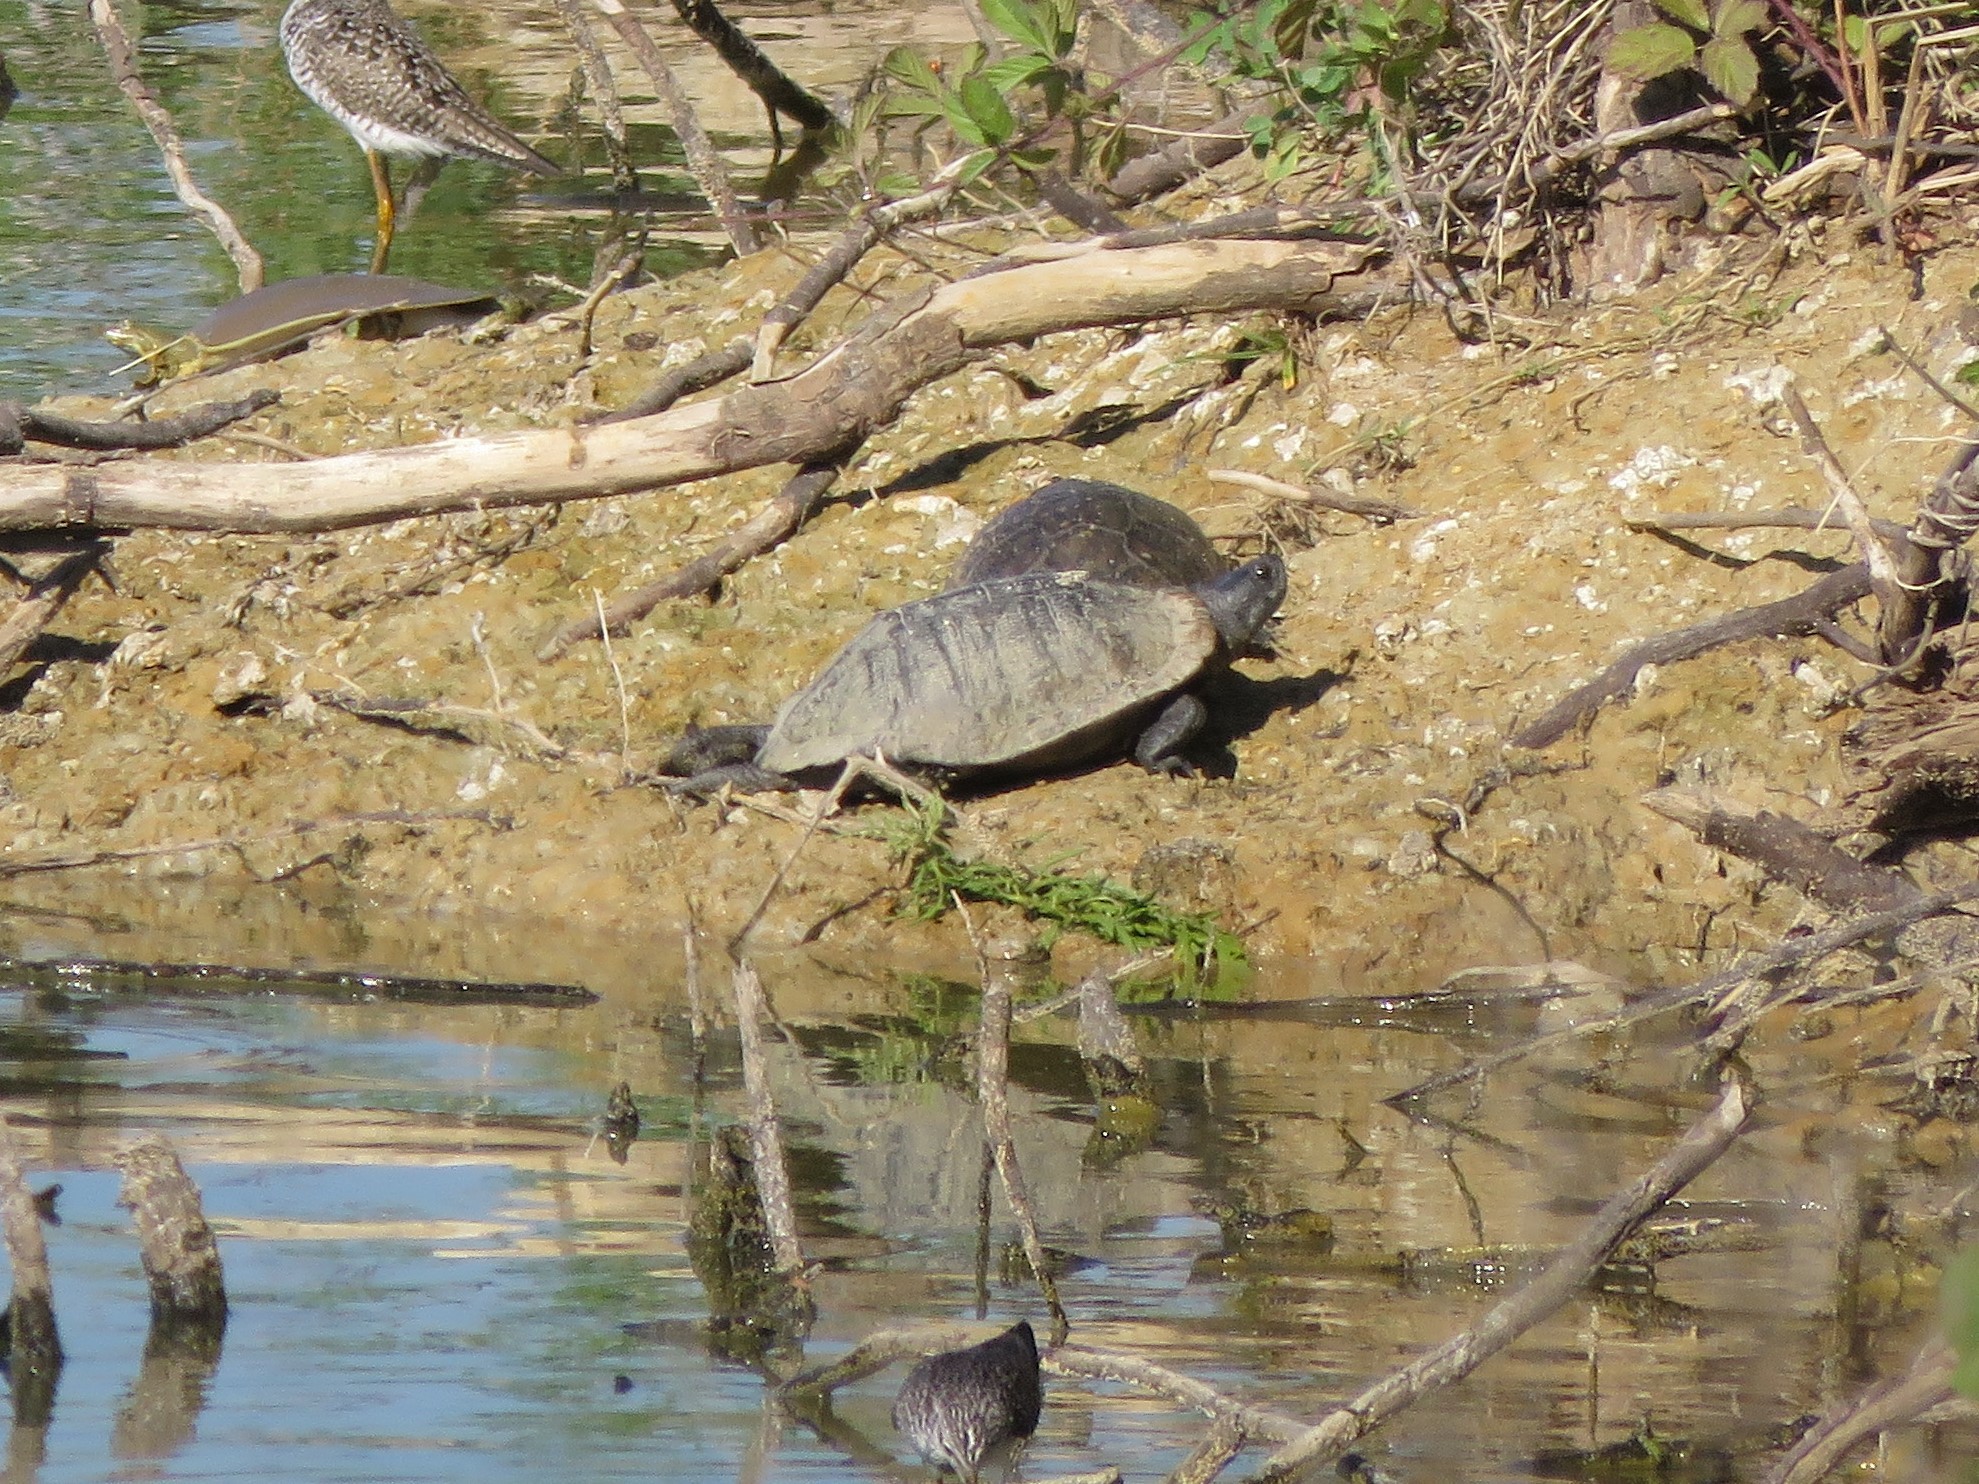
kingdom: Animalia
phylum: Chordata
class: Testudines
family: Emydidae
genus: Trachemys
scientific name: Trachemys scripta
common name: Slider
